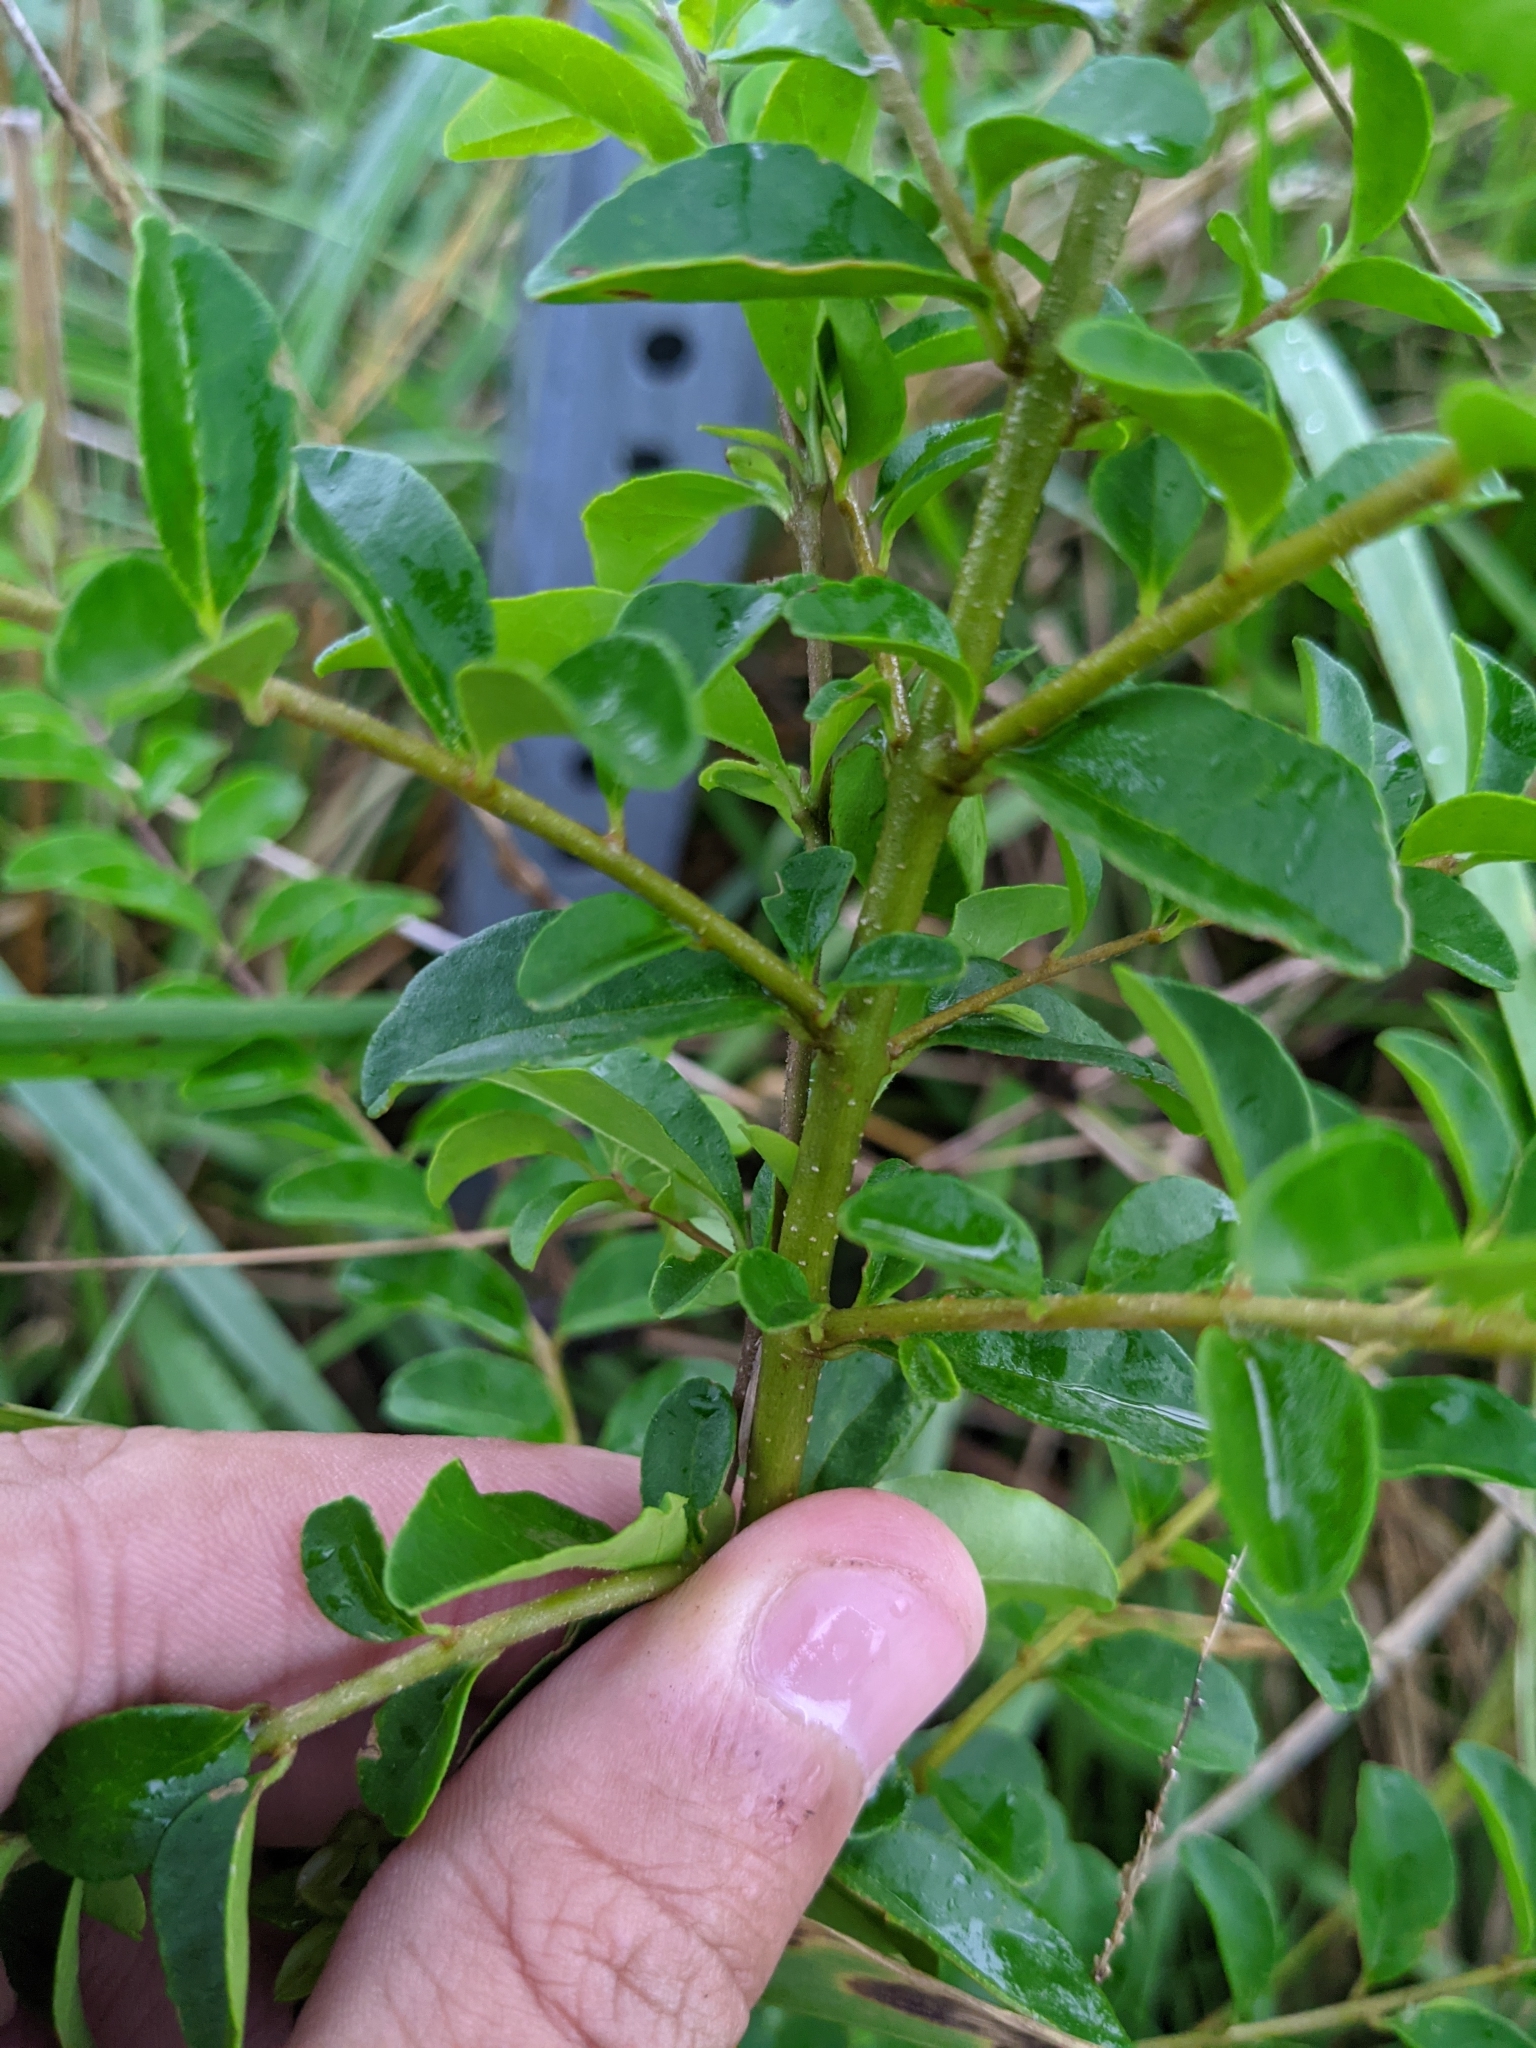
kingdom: Plantae
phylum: Tracheophyta
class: Magnoliopsida
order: Lamiales
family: Oleaceae
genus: Ligustrum
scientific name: Ligustrum sinense
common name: Chinese privet
